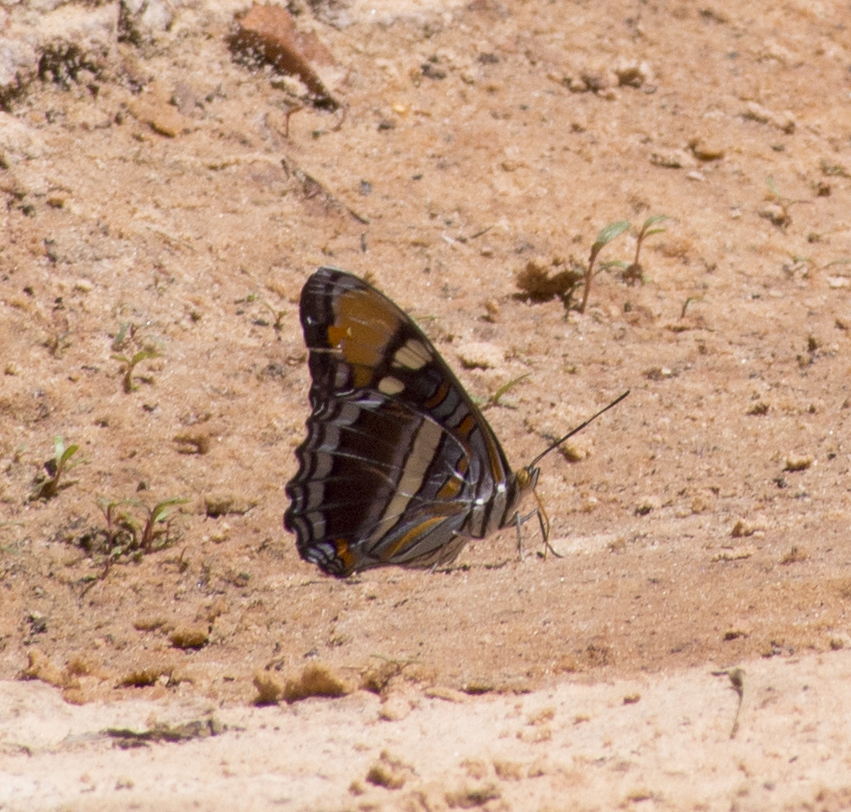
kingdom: Animalia
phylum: Arthropoda
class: Insecta
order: Lepidoptera
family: Nymphalidae
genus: Limenitis
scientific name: Limenitis bredowii
